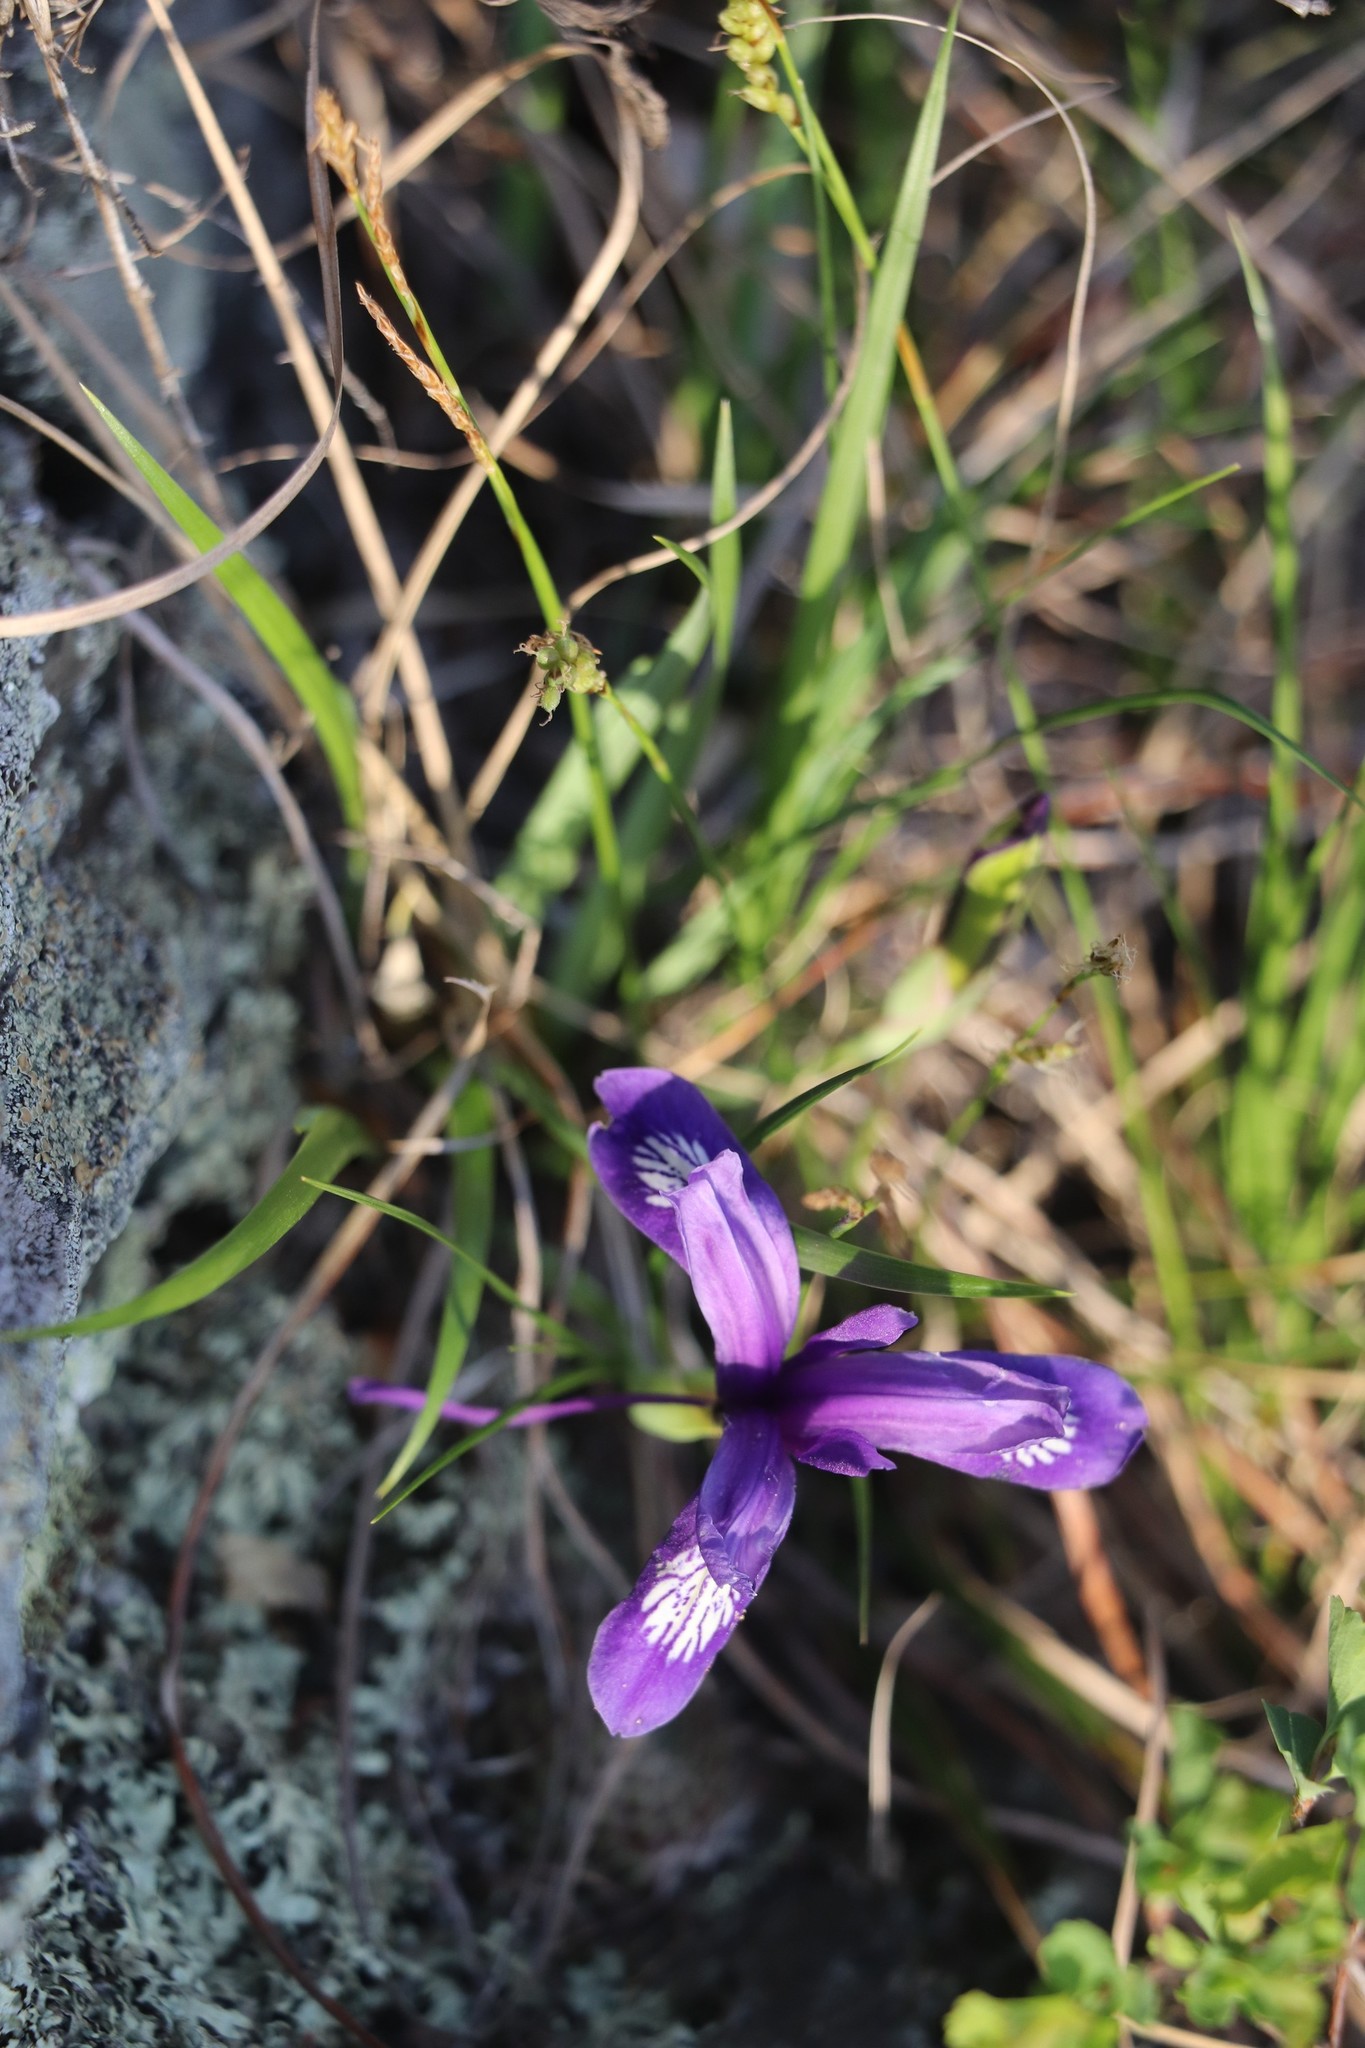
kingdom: Plantae
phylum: Tracheophyta
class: Liliopsida
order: Asparagales
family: Iridaceae
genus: Iris
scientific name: Iris ruthenica
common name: Purple-bract iris
